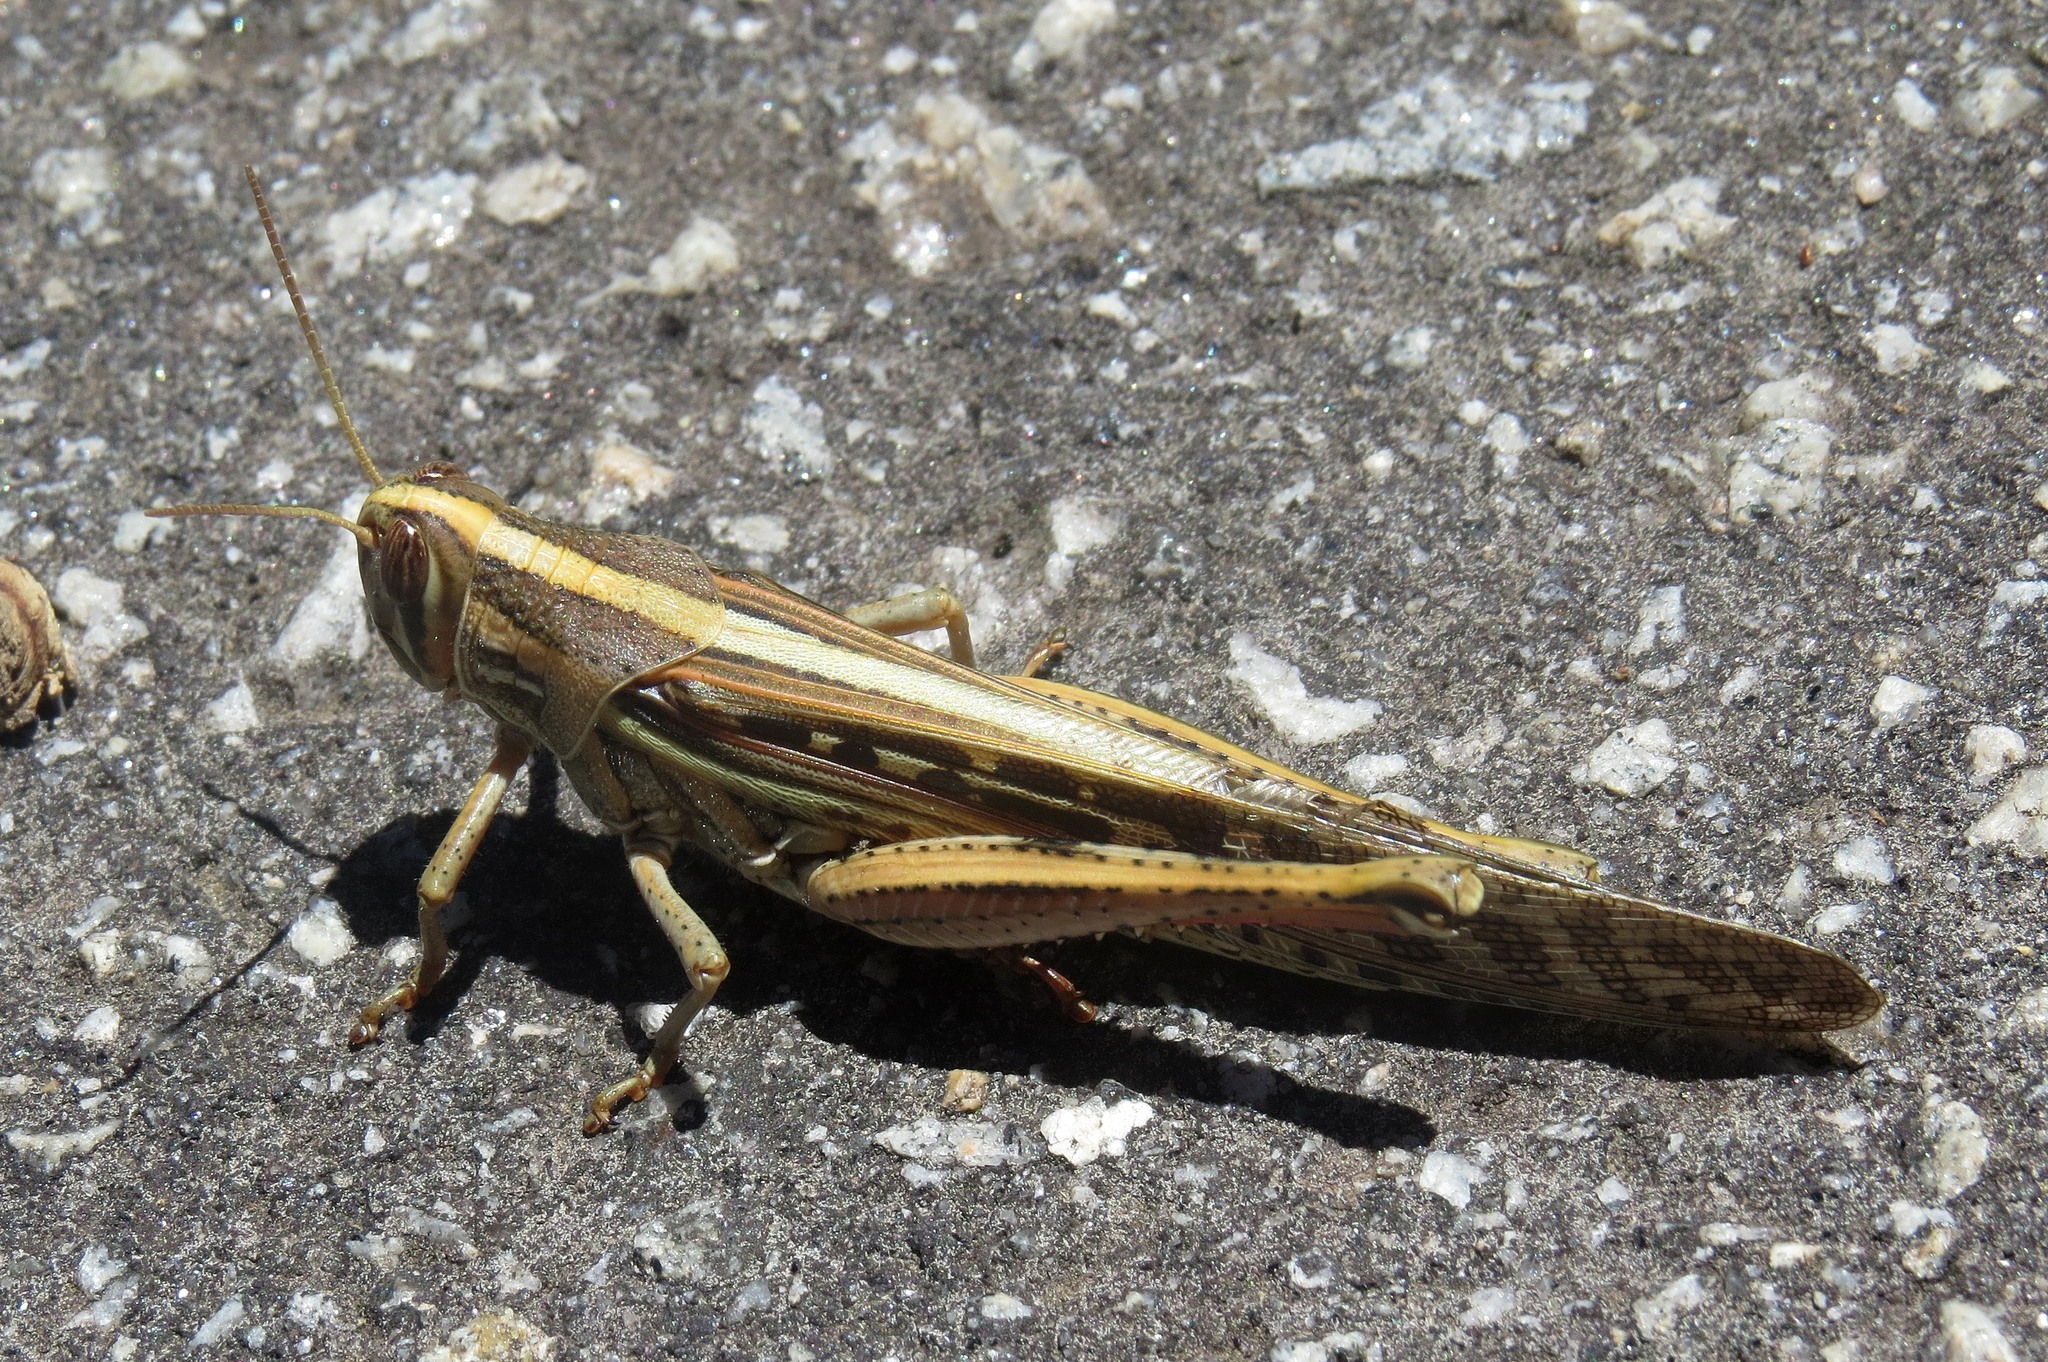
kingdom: Animalia
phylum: Arthropoda
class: Insecta
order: Orthoptera
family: Acrididae
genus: Schistocerca
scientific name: Schistocerca americana
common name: American bird locust
